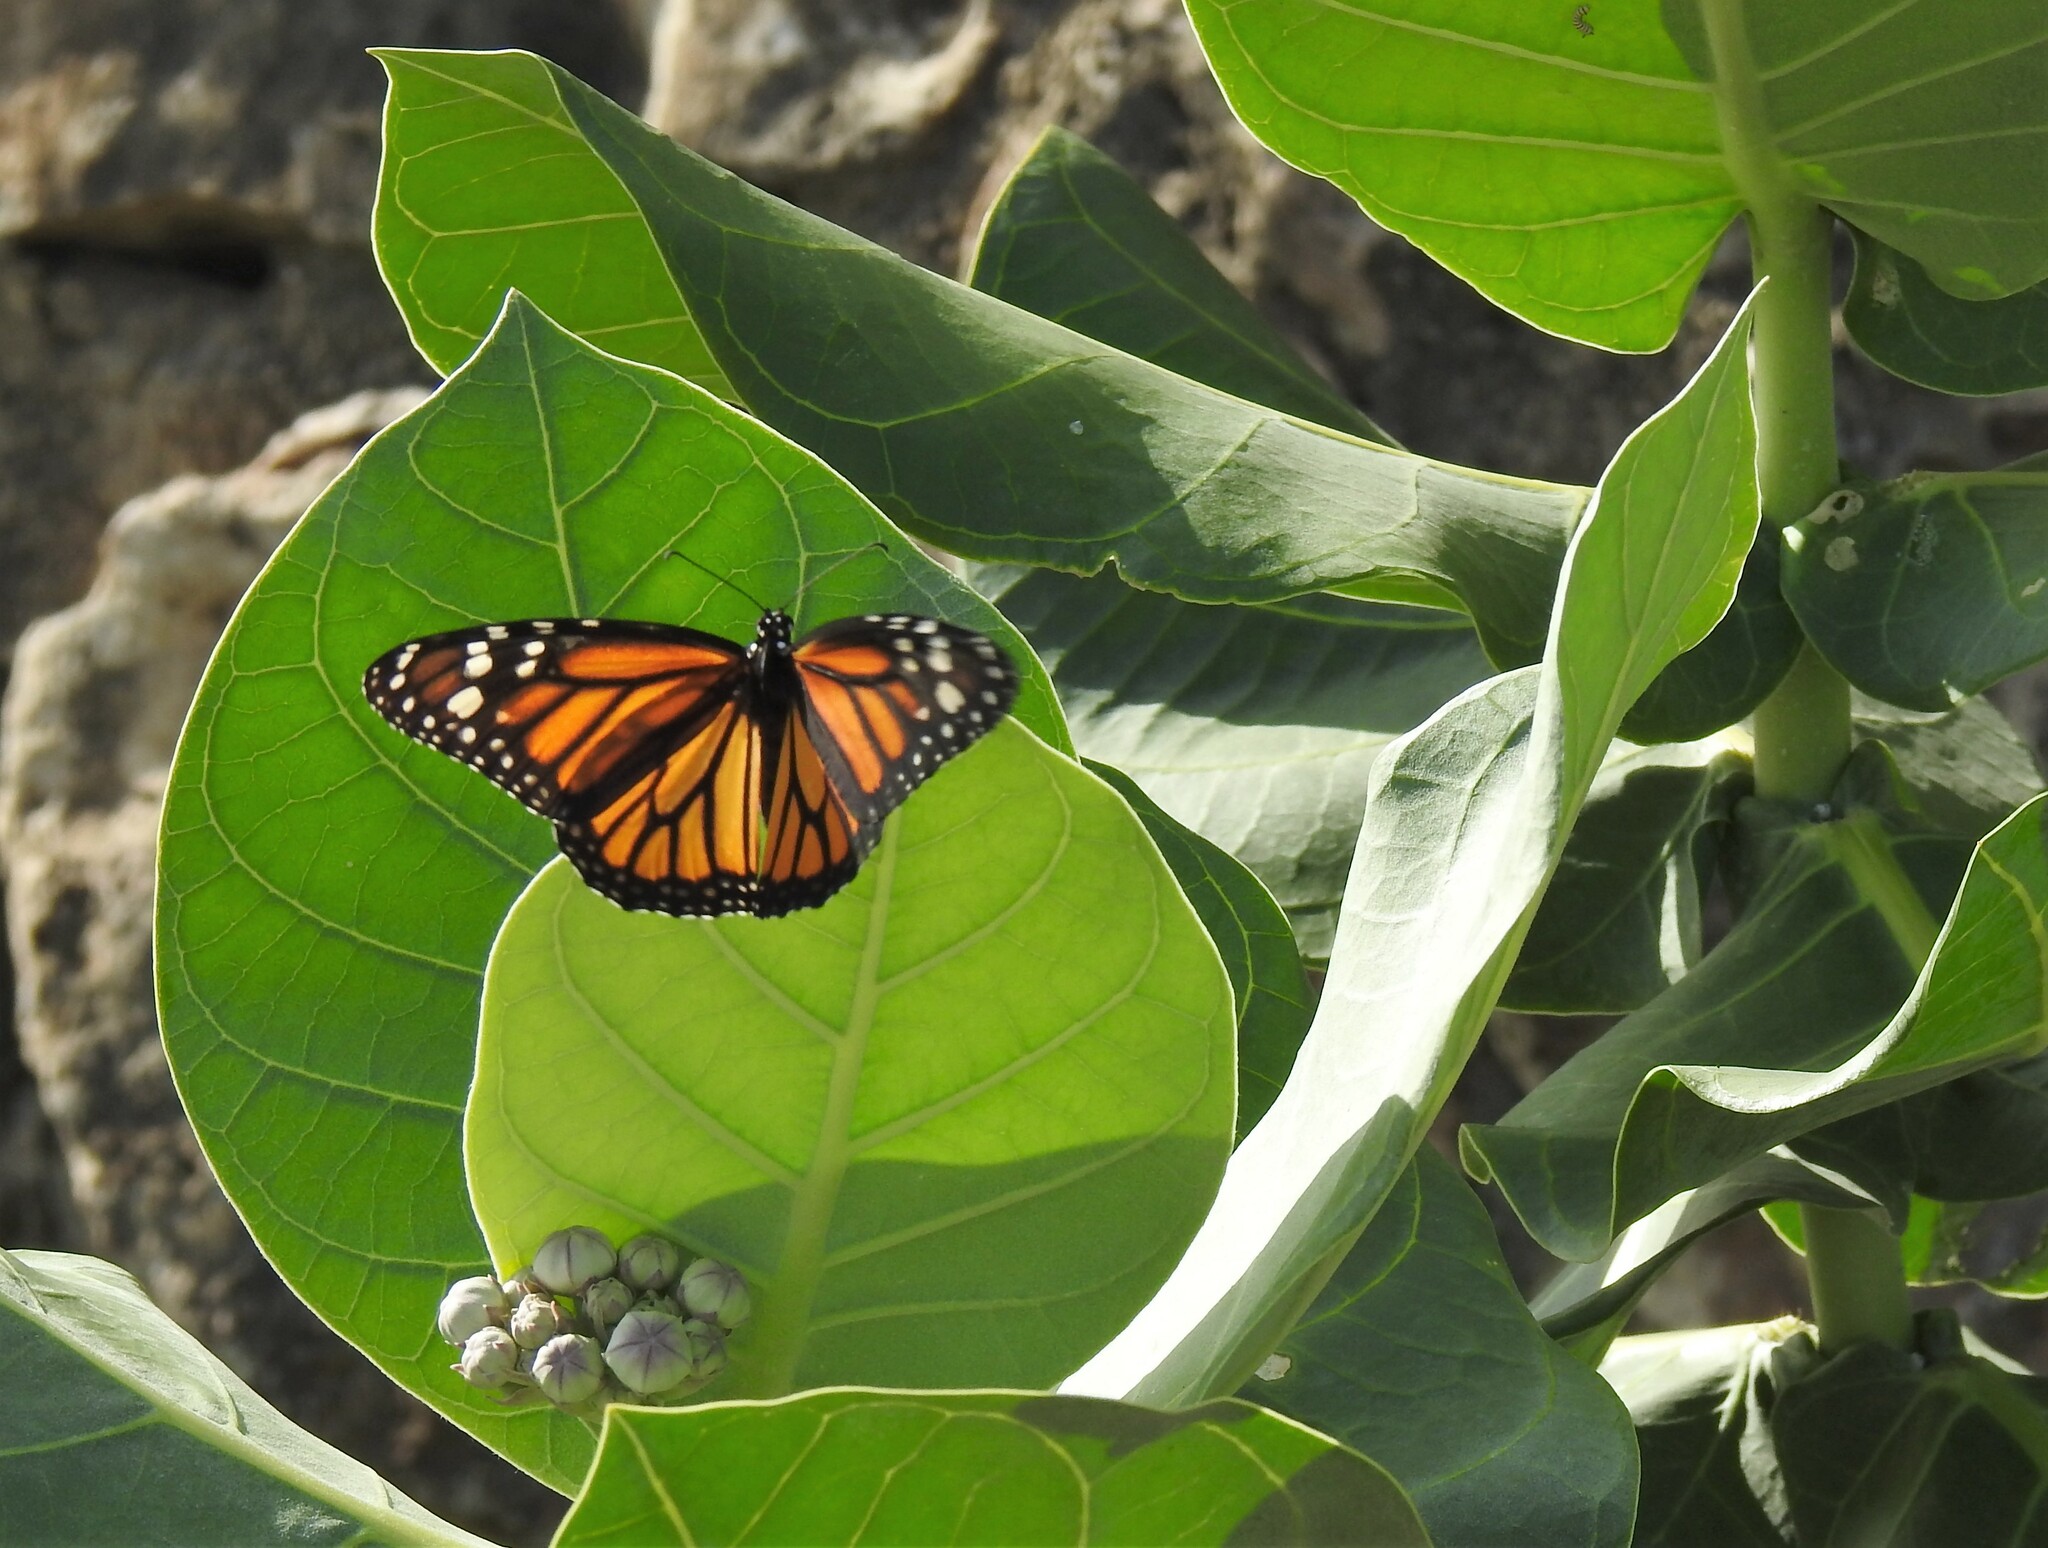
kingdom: Animalia
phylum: Arthropoda
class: Insecta
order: Lepidoptera
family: Nymphalidae
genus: Danaus
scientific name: Danaus plexippus
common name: Monarch
